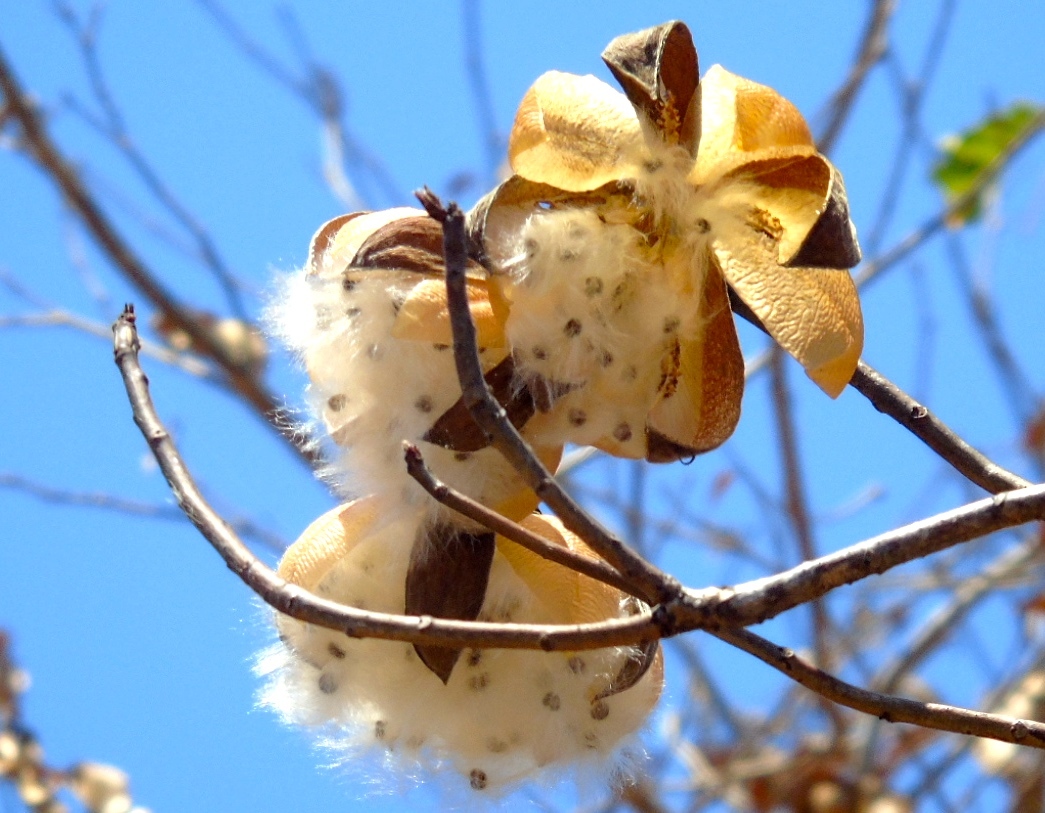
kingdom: Plantae
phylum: Tracheophyta
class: Magnoliopsida
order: Malvales
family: Cochlospermaceae
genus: Cochlospermum
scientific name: Cochlospermum vitifolium
